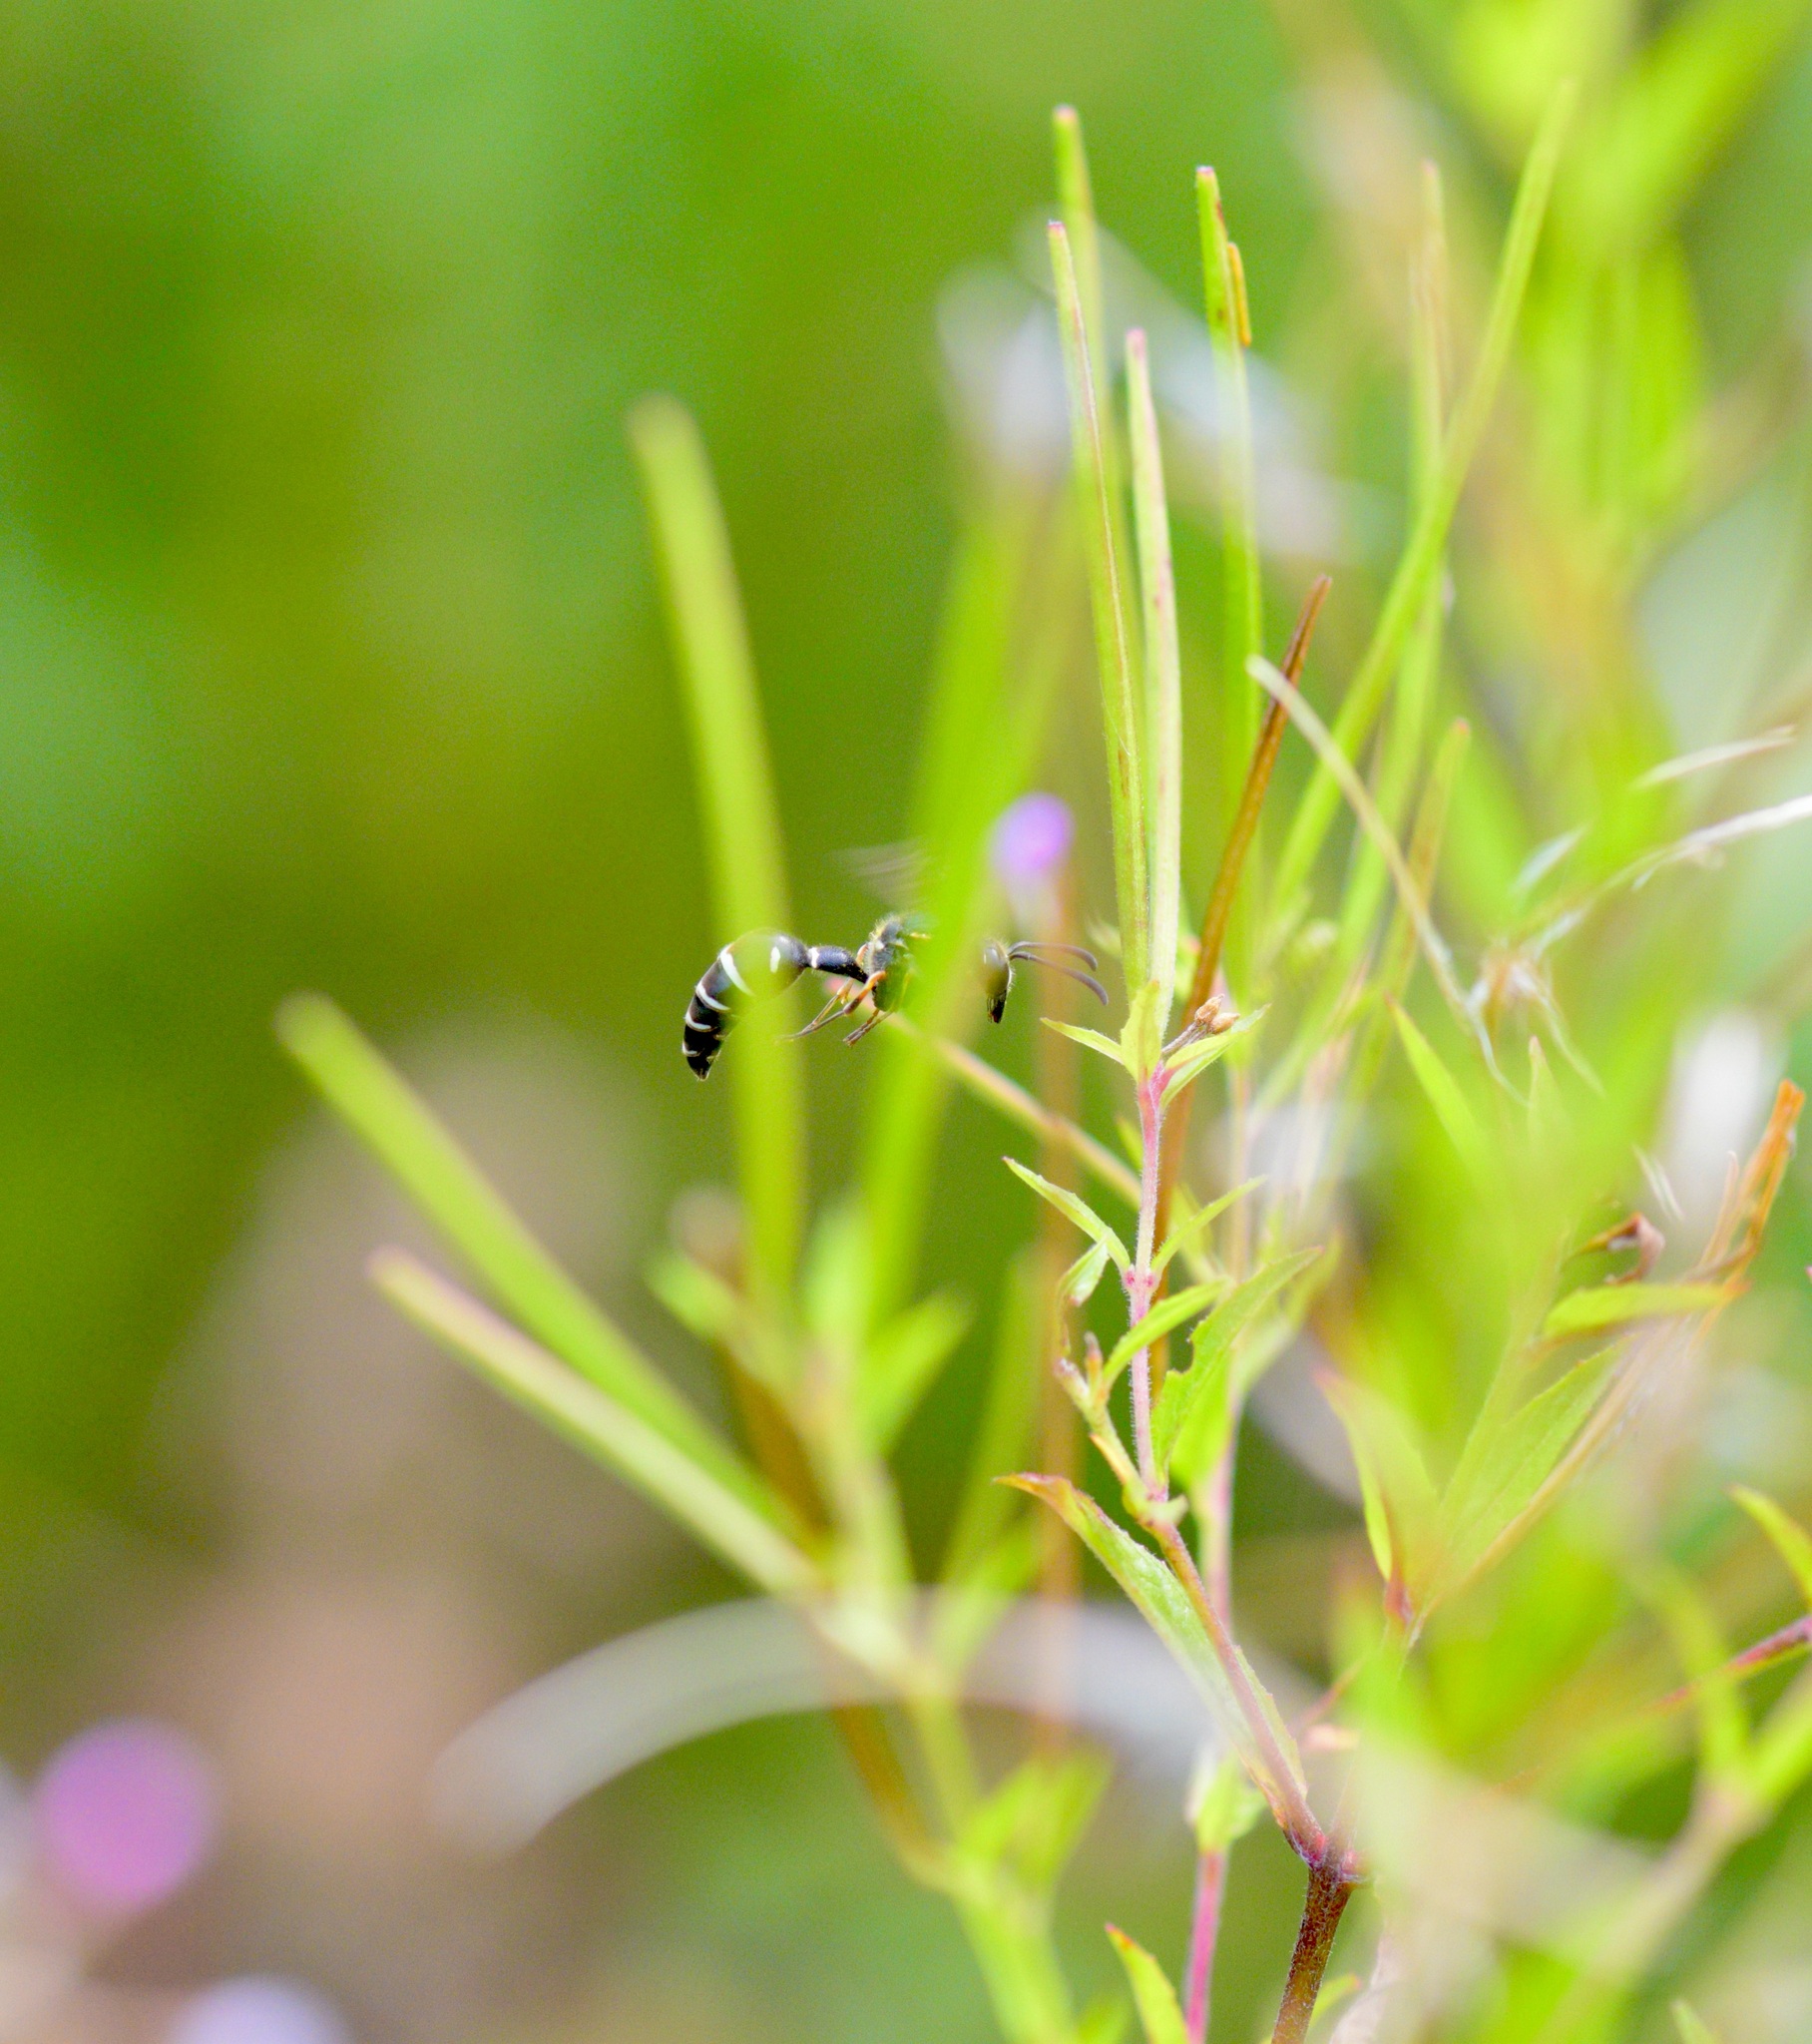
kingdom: Animalia
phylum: Arthropoda
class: Insecta
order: Hymenoptera
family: Vespidae
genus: Eumenes
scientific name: Eumenes crucifera
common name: Cross potter wasp
